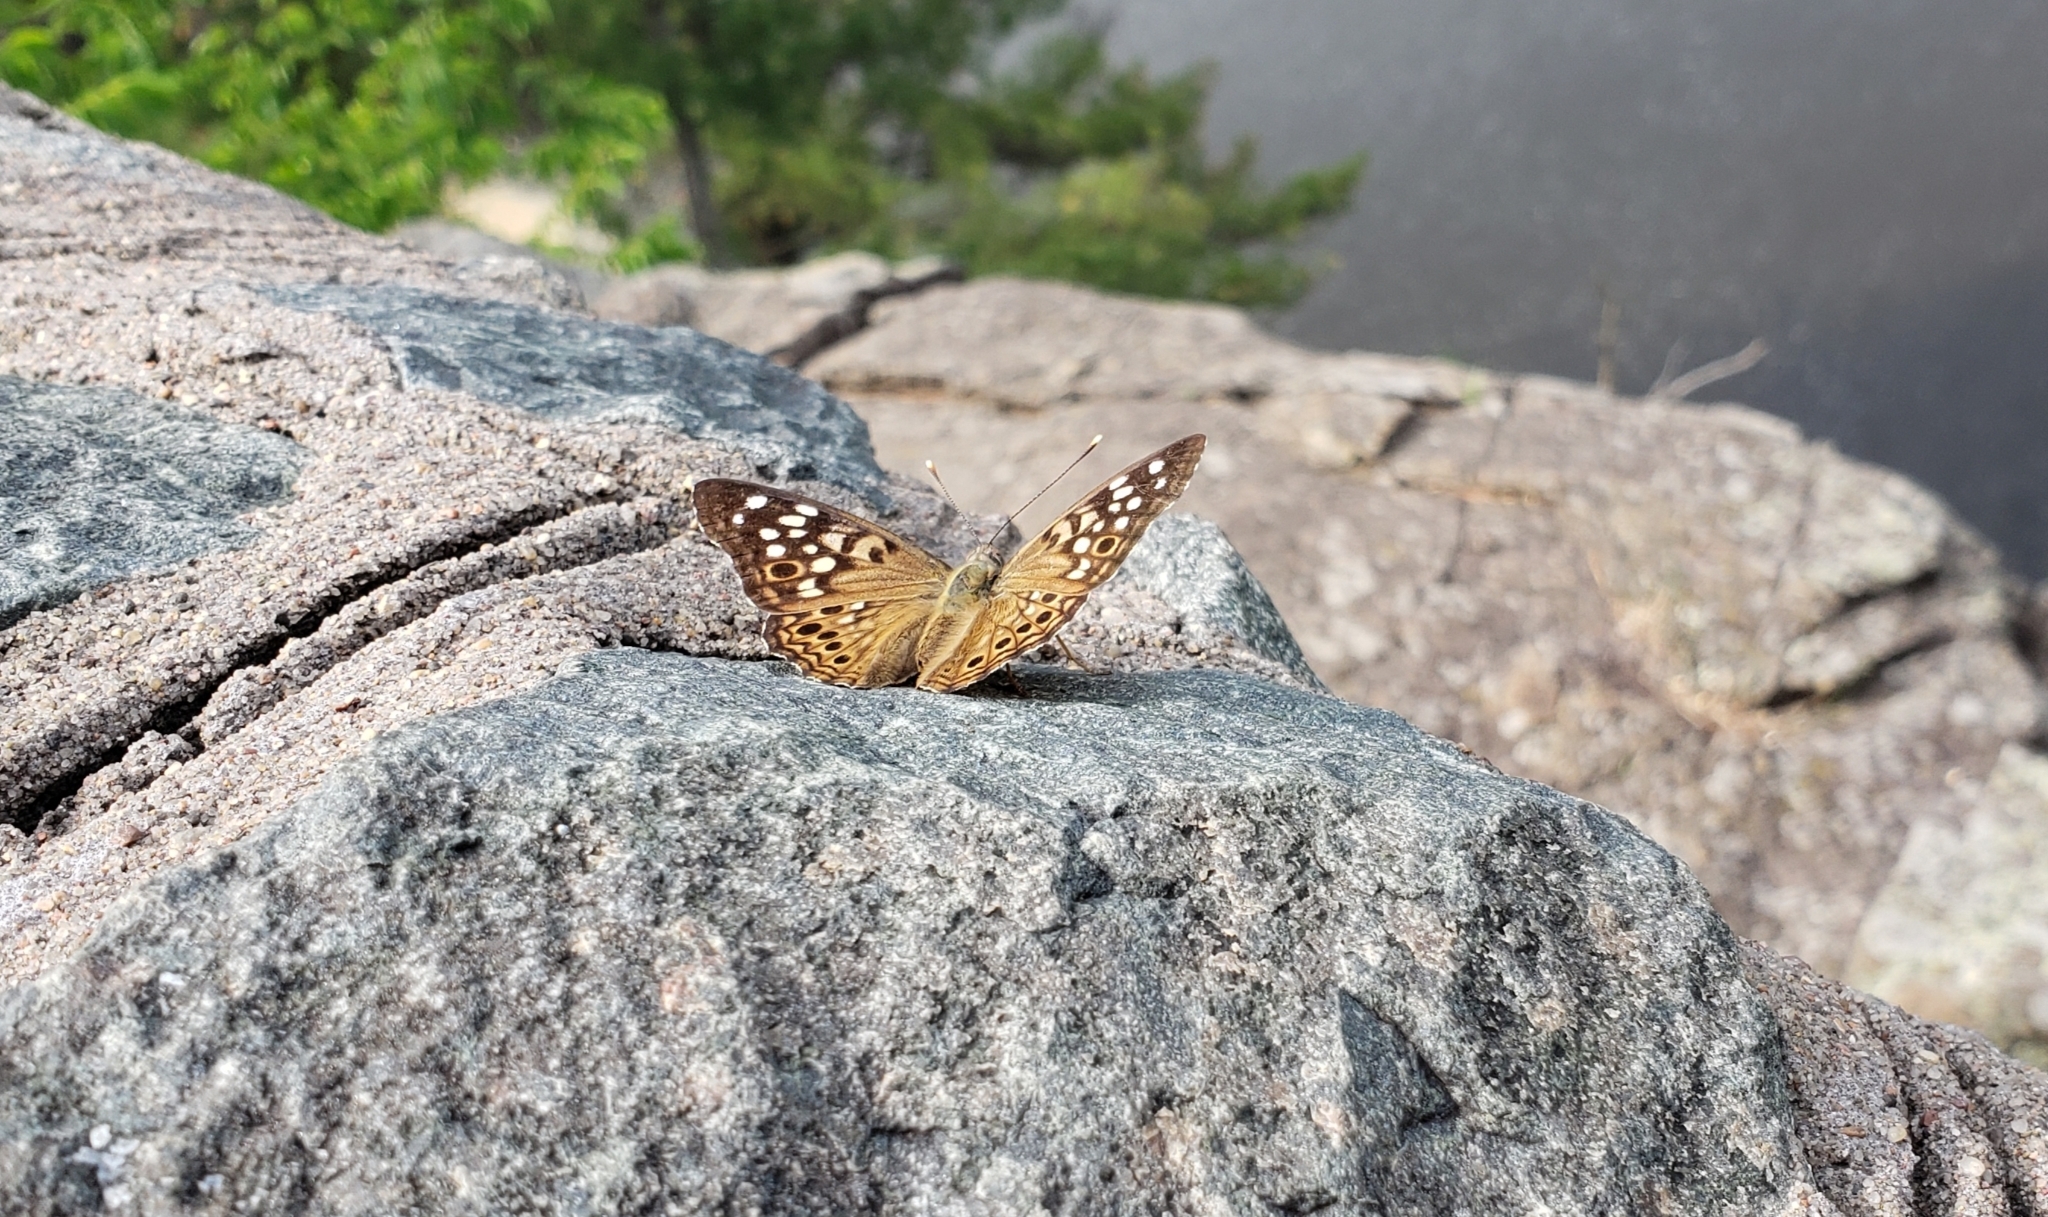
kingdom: Animalia
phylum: Arthropoda
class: Insecta
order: Lepidoptera
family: Nymphalidae
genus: Asterocampa
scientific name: Asterocampa celtis
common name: Hackberry emperor
